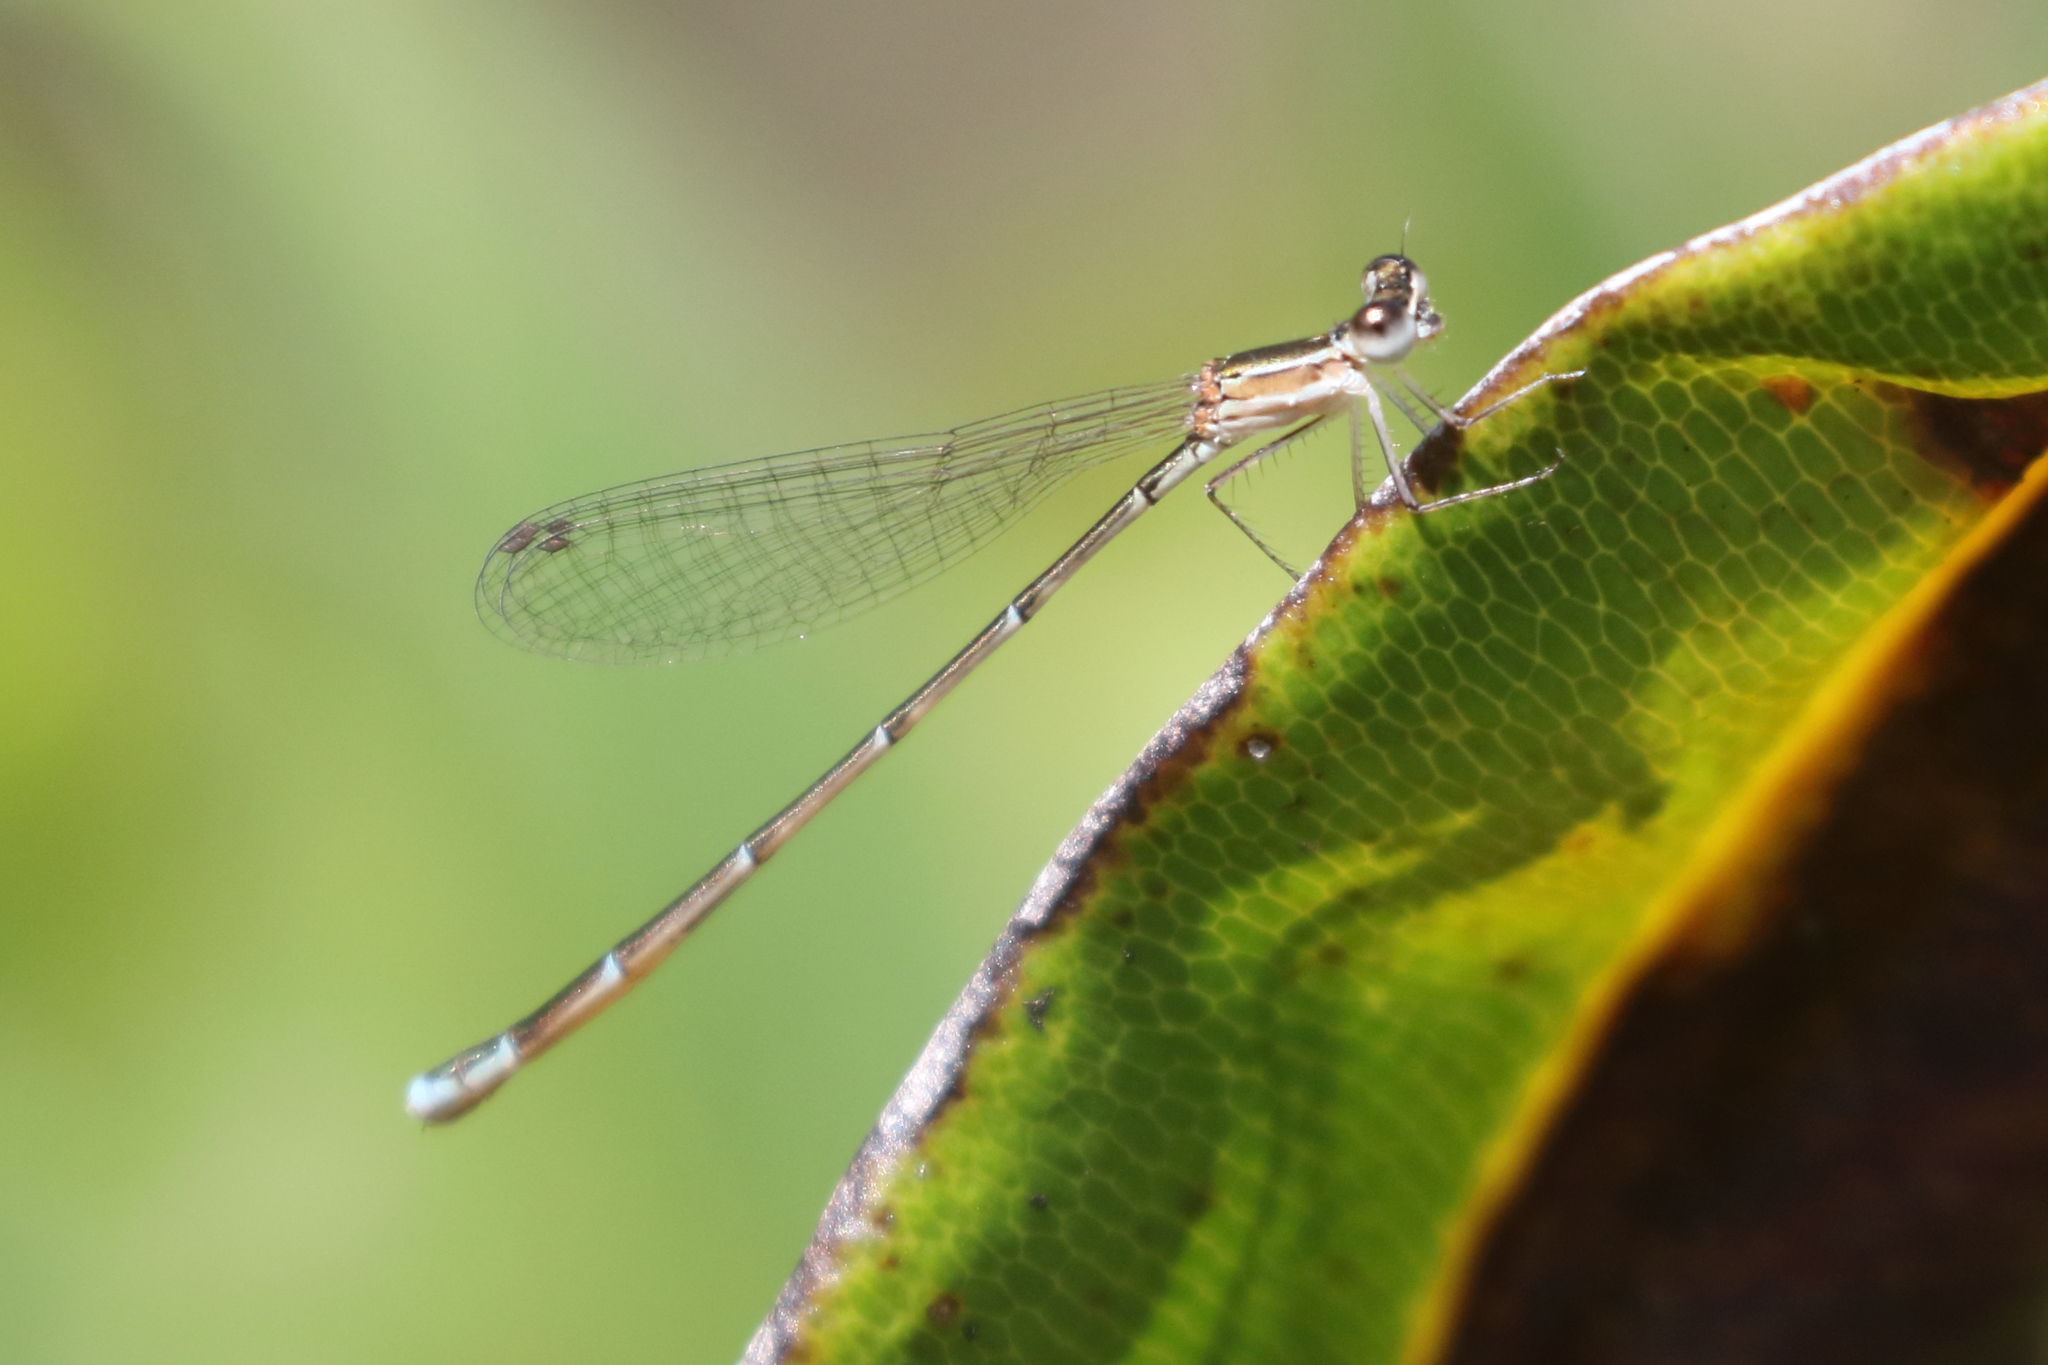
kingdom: Animalia
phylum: Arthropoda
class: Insecta
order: Odonata
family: Coenagrionidae
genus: Nehalennia
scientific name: Nehalennia pallidula
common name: Everglades sprite
